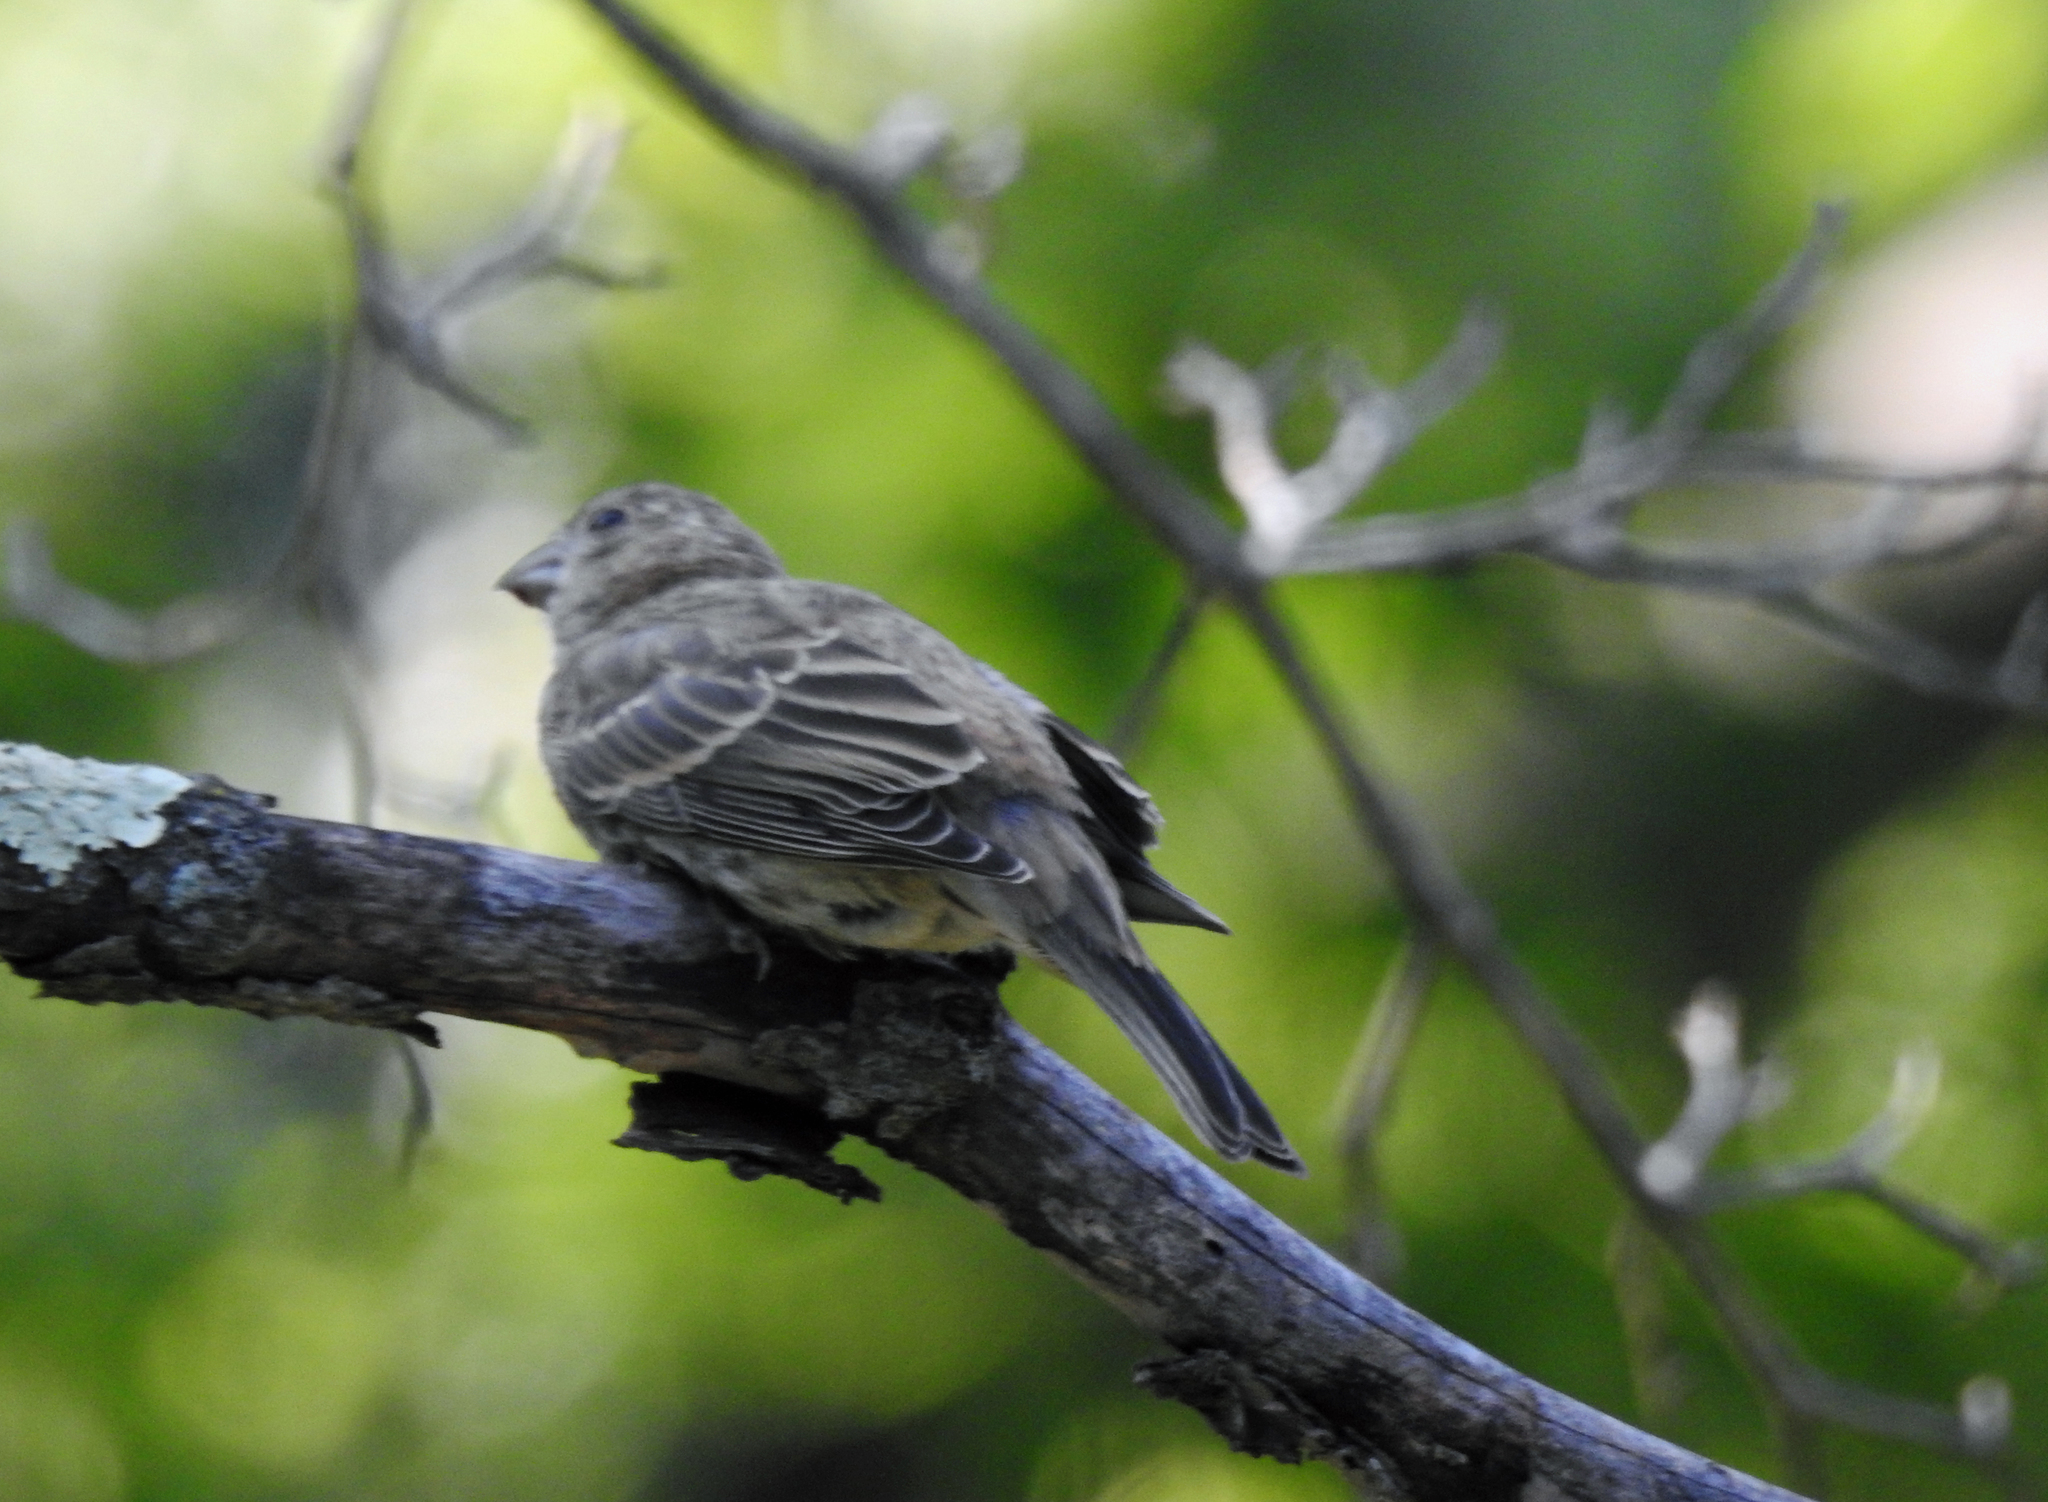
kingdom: Animalia
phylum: Chordata
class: Aves
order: Passeriformes
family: Fringillidae
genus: Haemorhous
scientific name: Haemorhous mexicanus
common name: House finch
